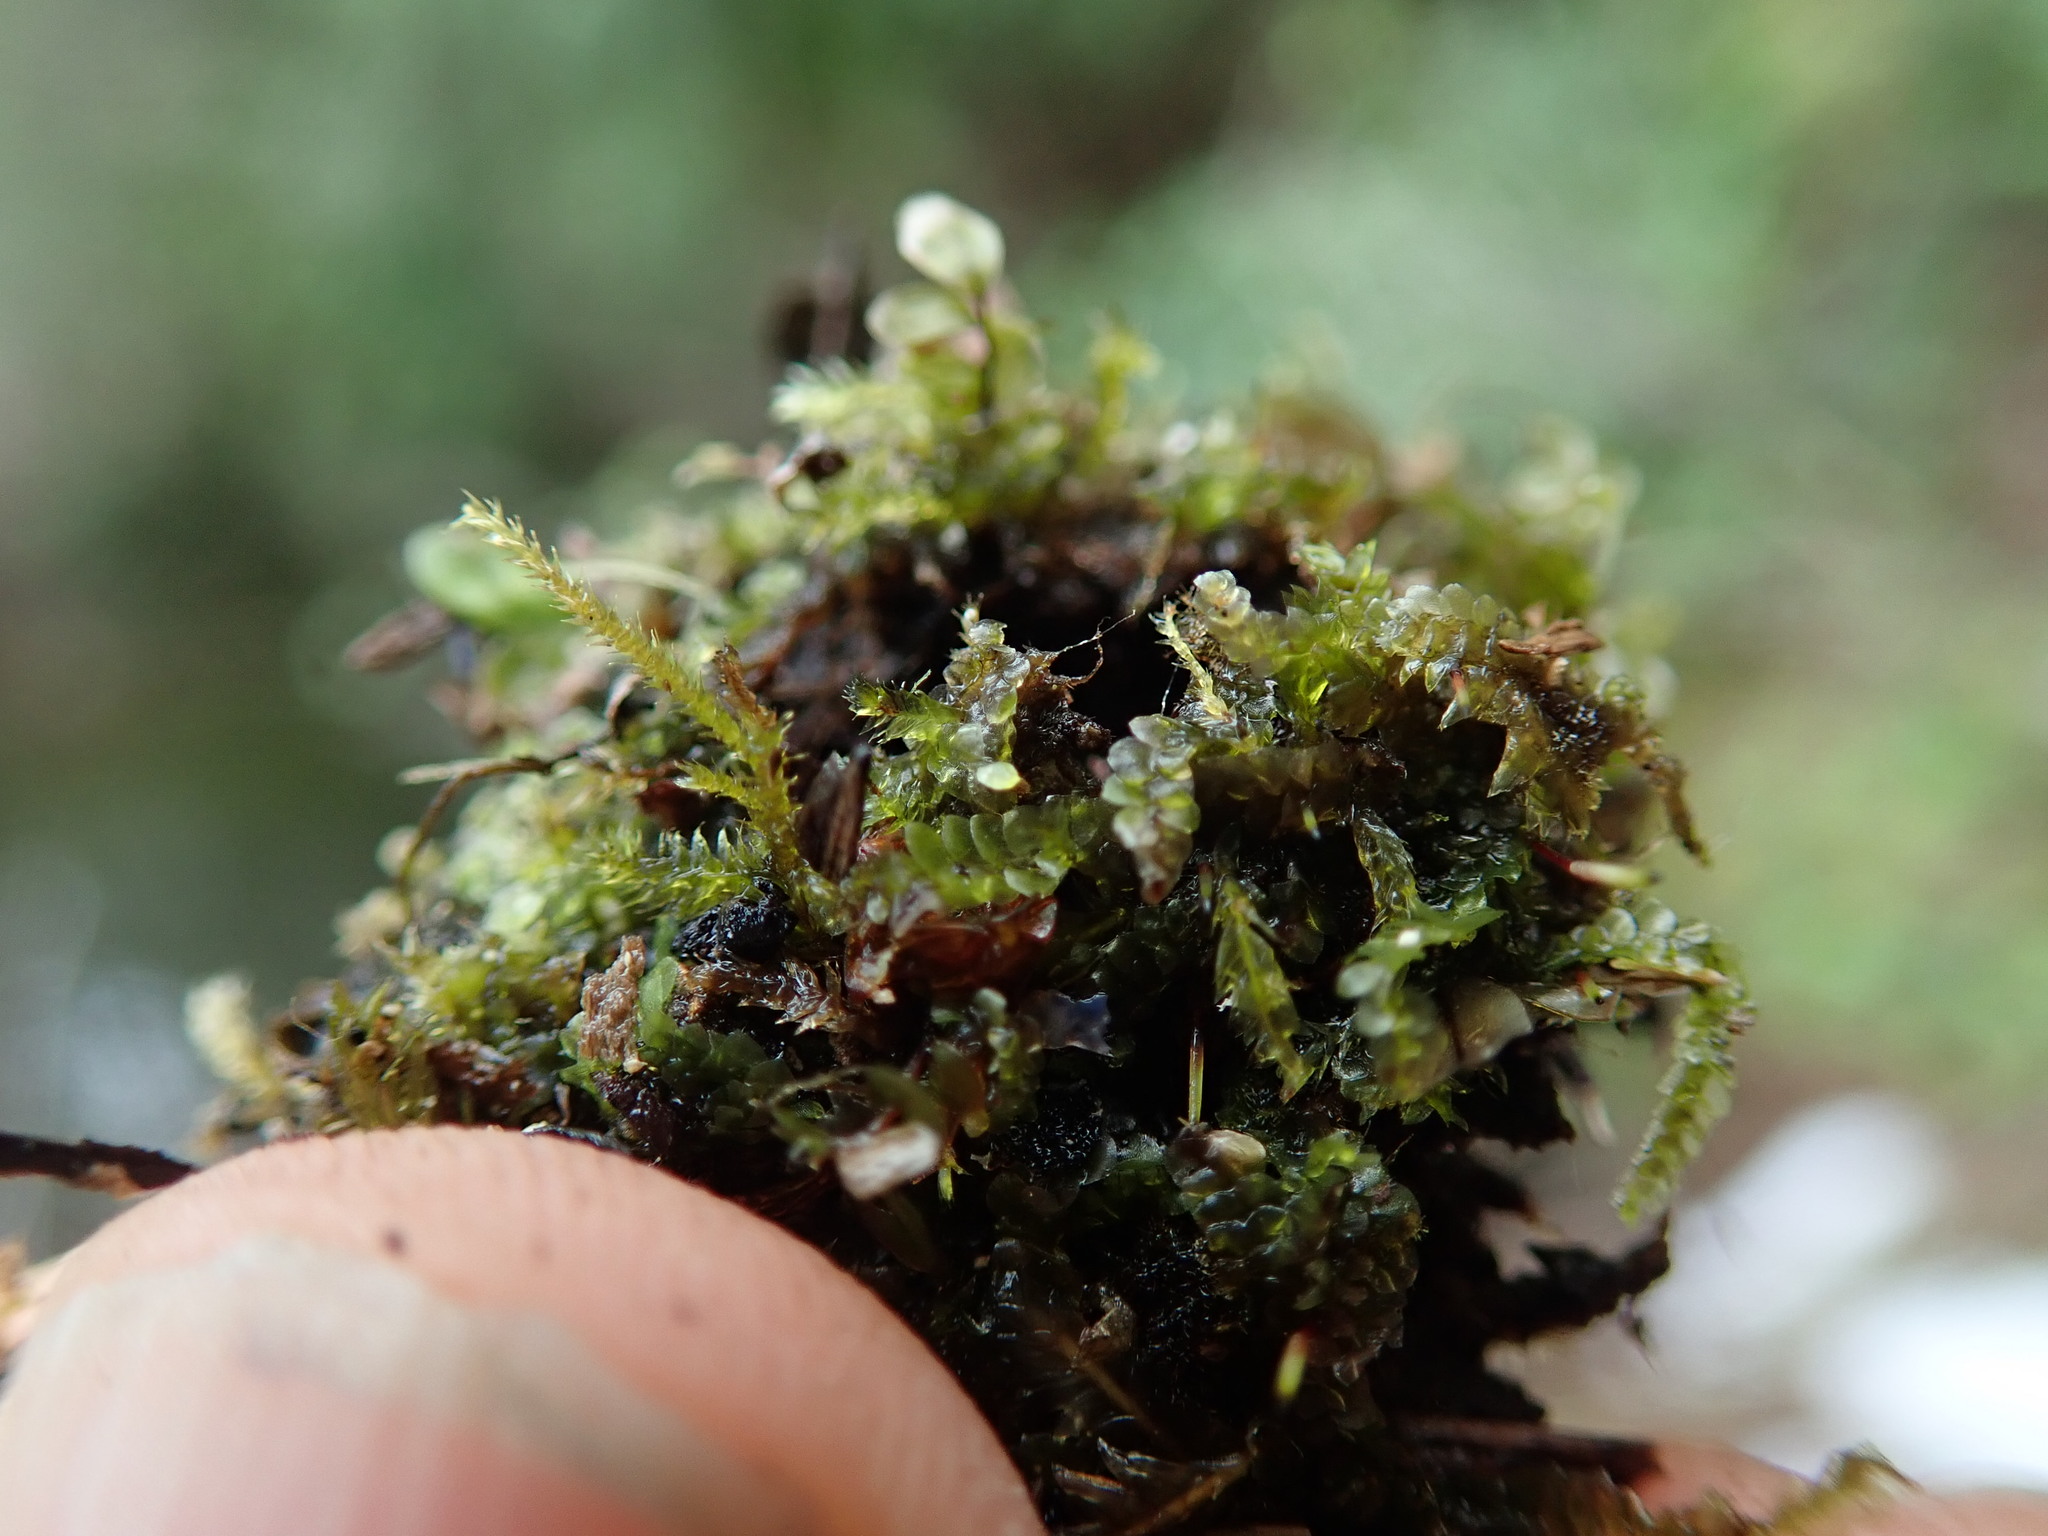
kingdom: Plantae
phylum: Marchantiophyta
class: Jungermanniopsida
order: Jungermanniales
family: Calypogeiaceae
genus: Calypogeia
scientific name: Calypogeia muelleriana
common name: Mueller s pouchwort
